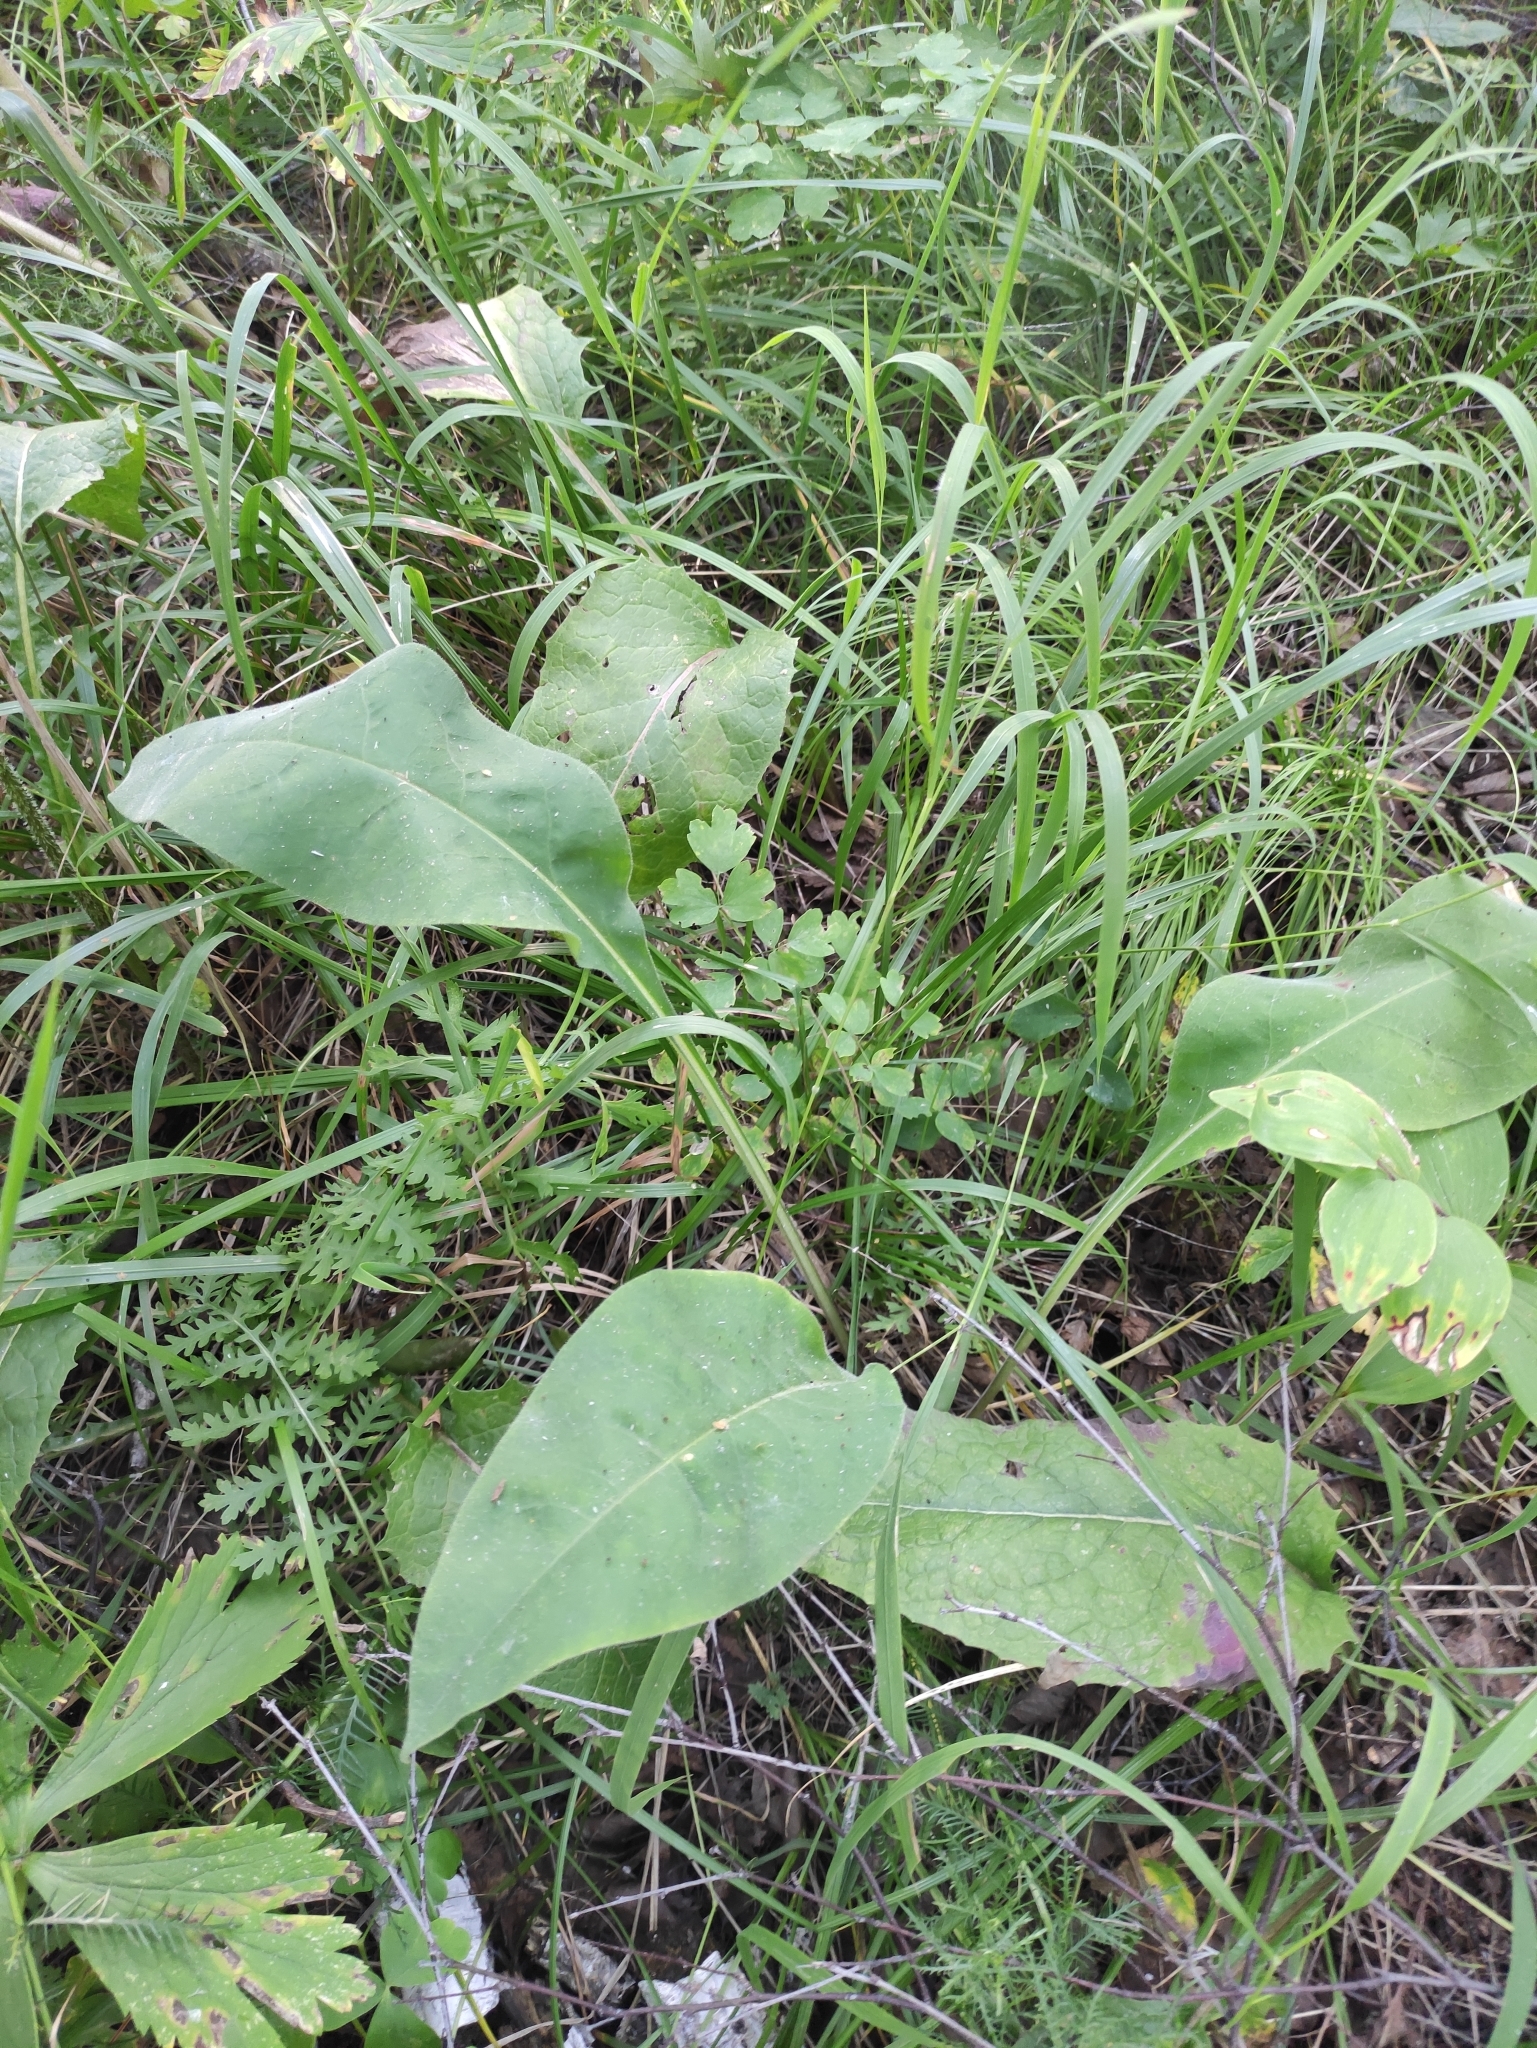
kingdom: Plantae
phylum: Tracheophyta
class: Magnoliopsida
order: Boraginales
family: Boraginaceae
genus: Pulmonaria
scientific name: Pulmonaria mollis
